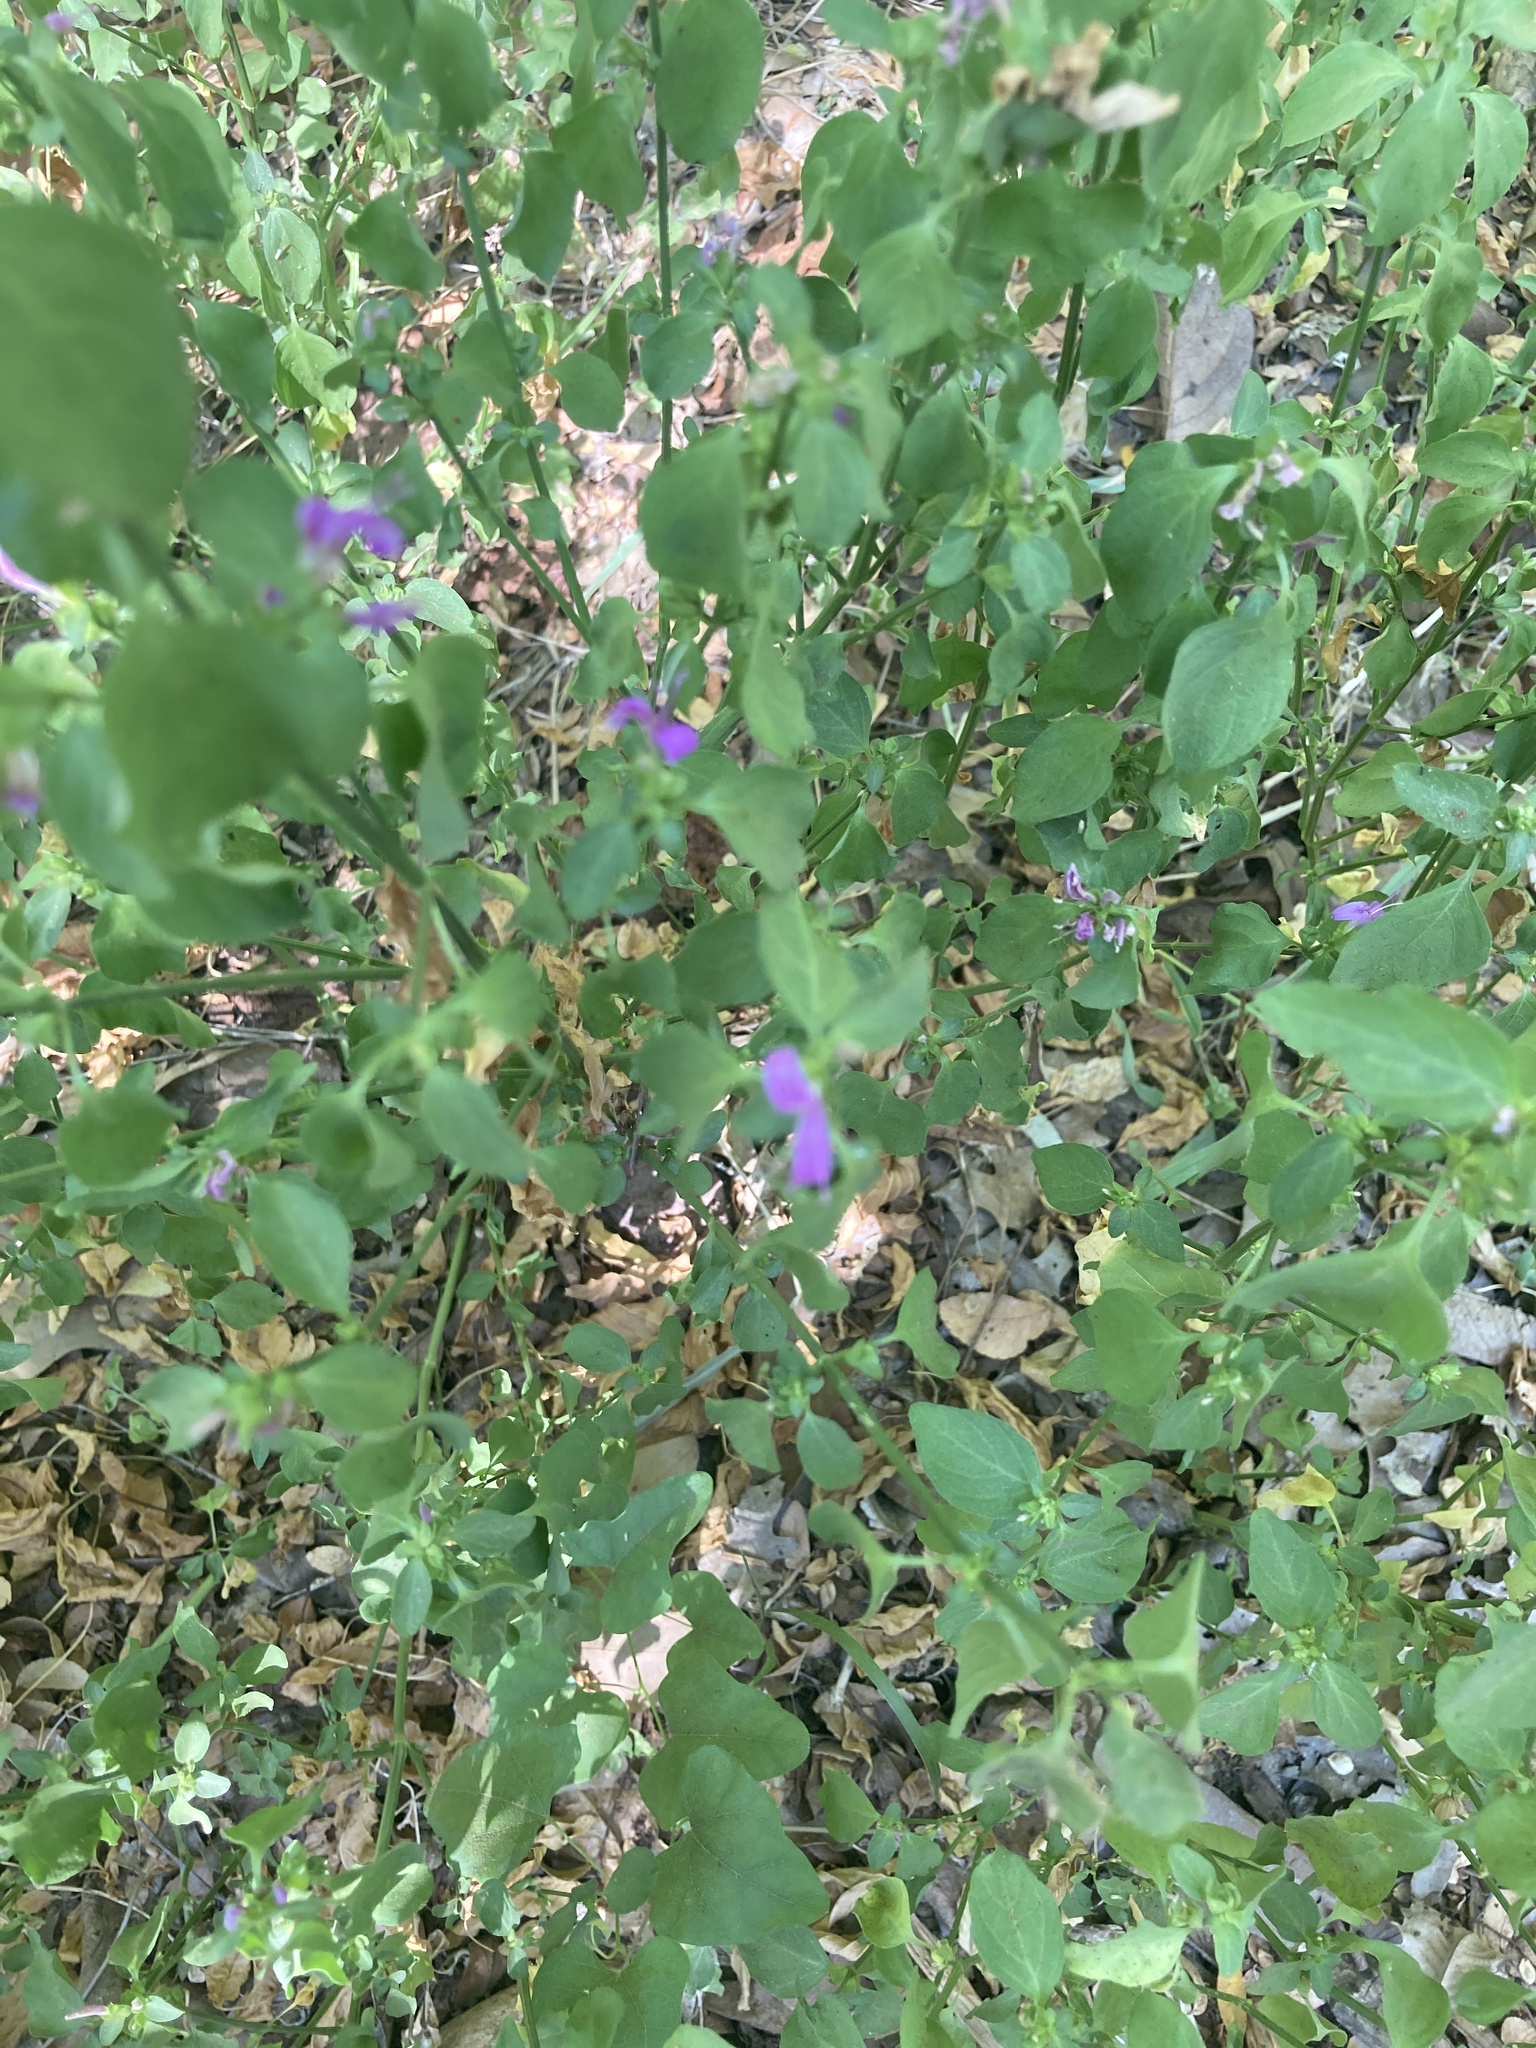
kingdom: Plantae
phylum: Tracheophyta
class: Magnoliopsida
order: Lamiales
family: Acanthaceae
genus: Dicliptera
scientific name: Dicliptera brachiata
